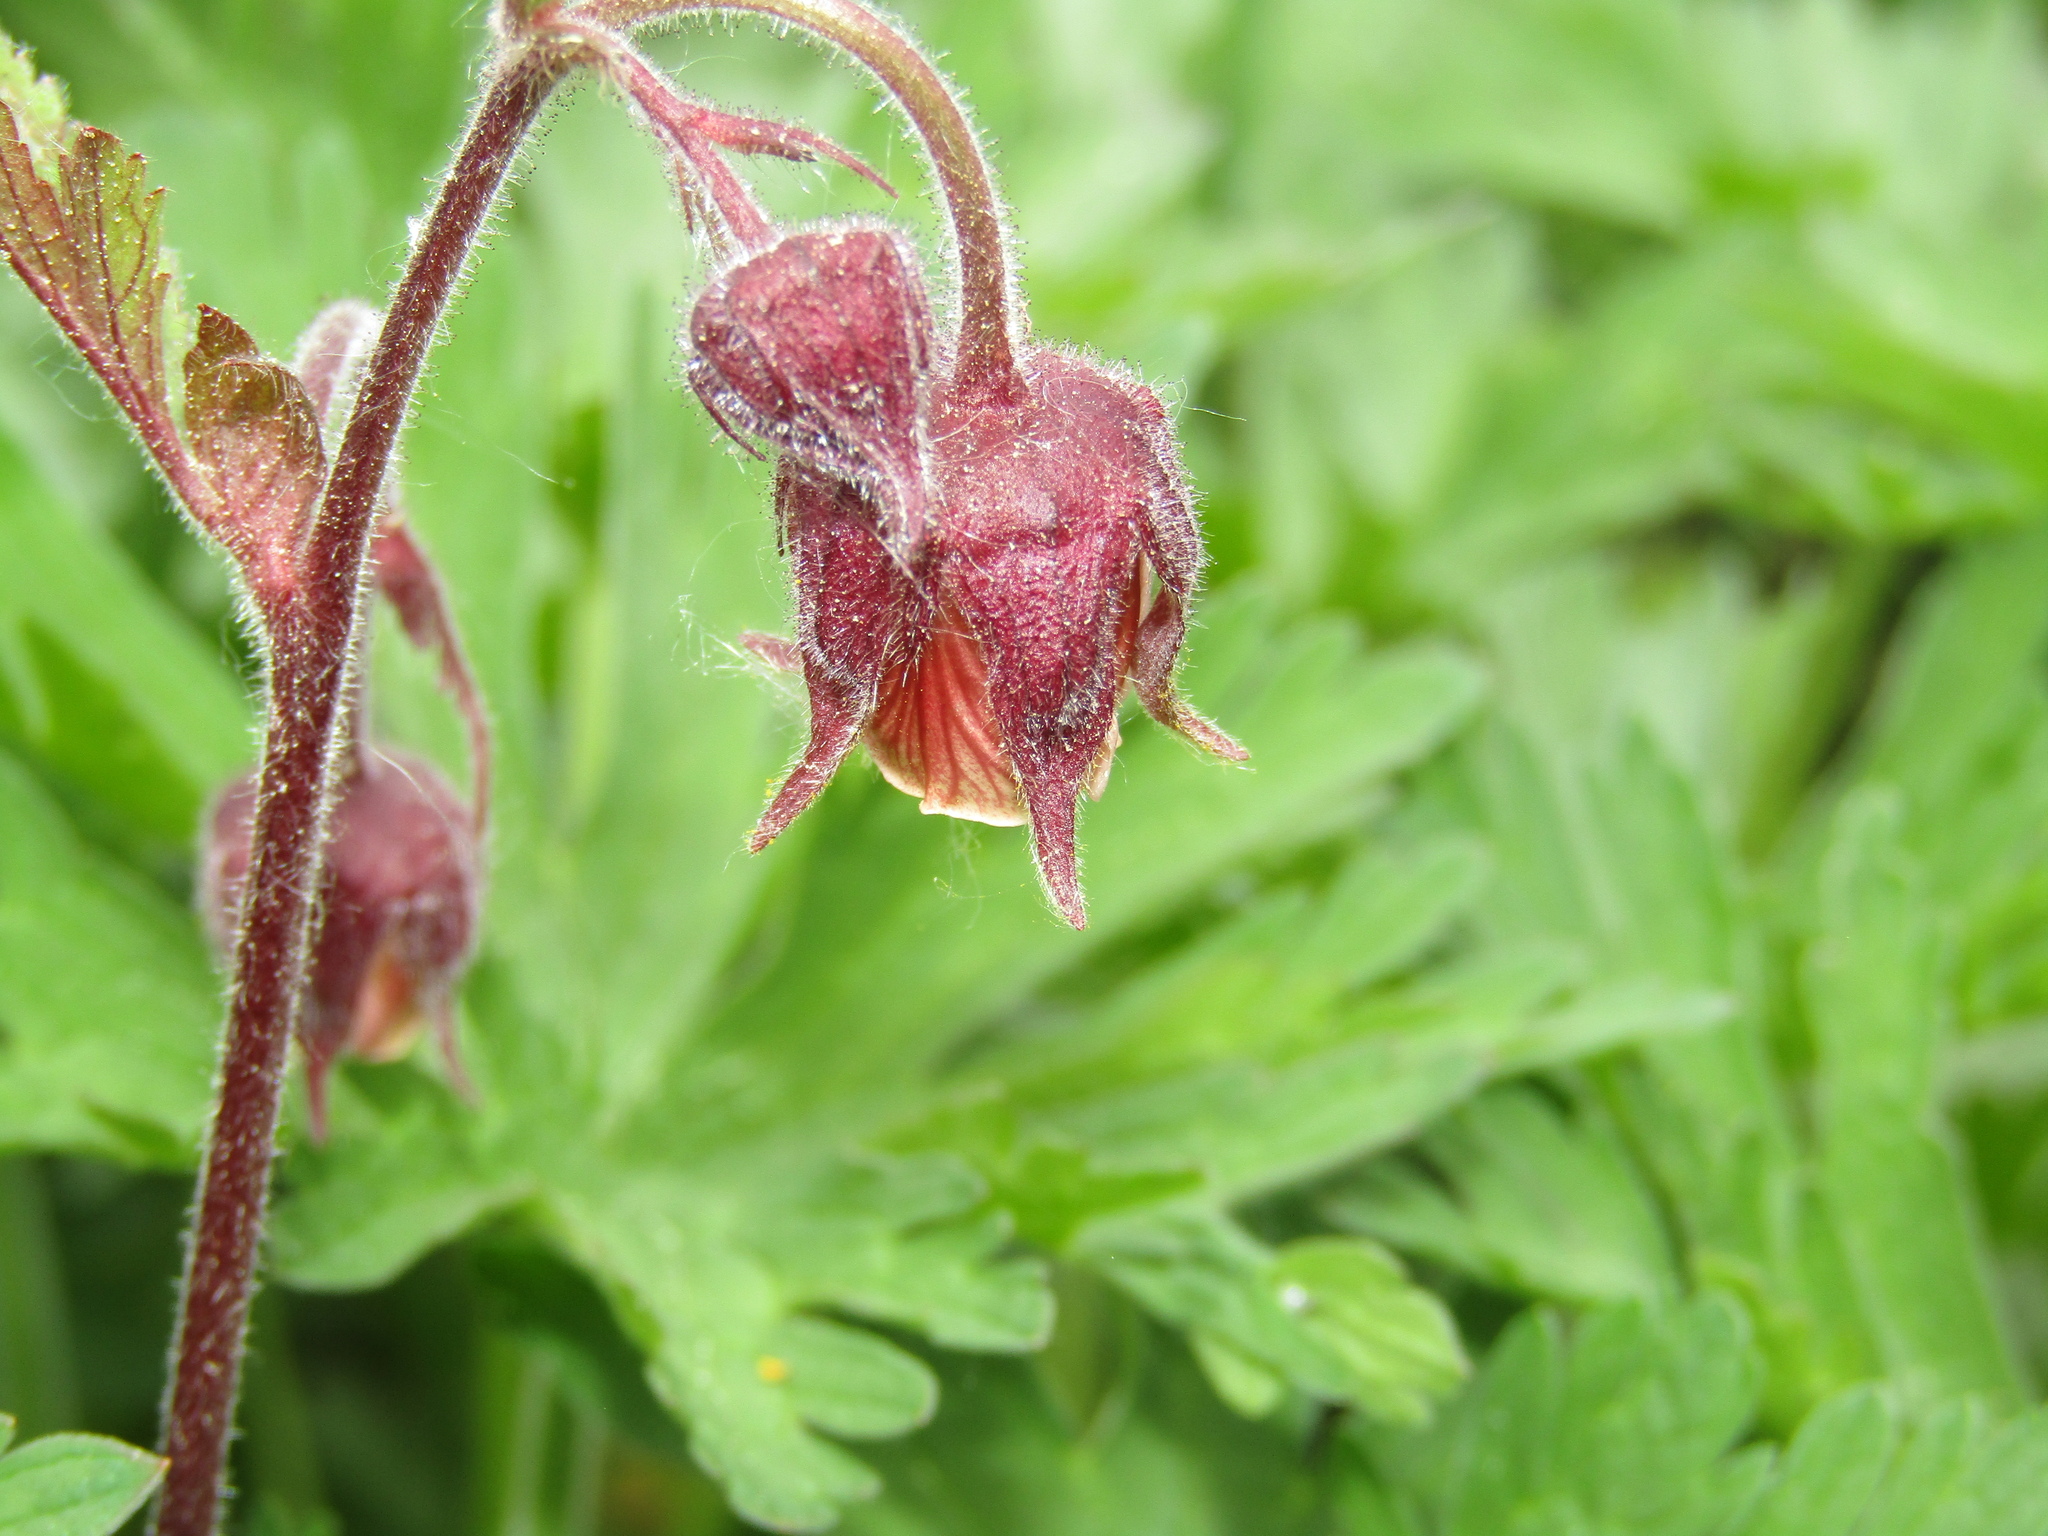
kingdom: Plantae
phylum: Tracheophyta
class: Magnoliopsida
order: Rosales
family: Rosaceae
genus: Geum
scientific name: Geum rivale
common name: Water avens
